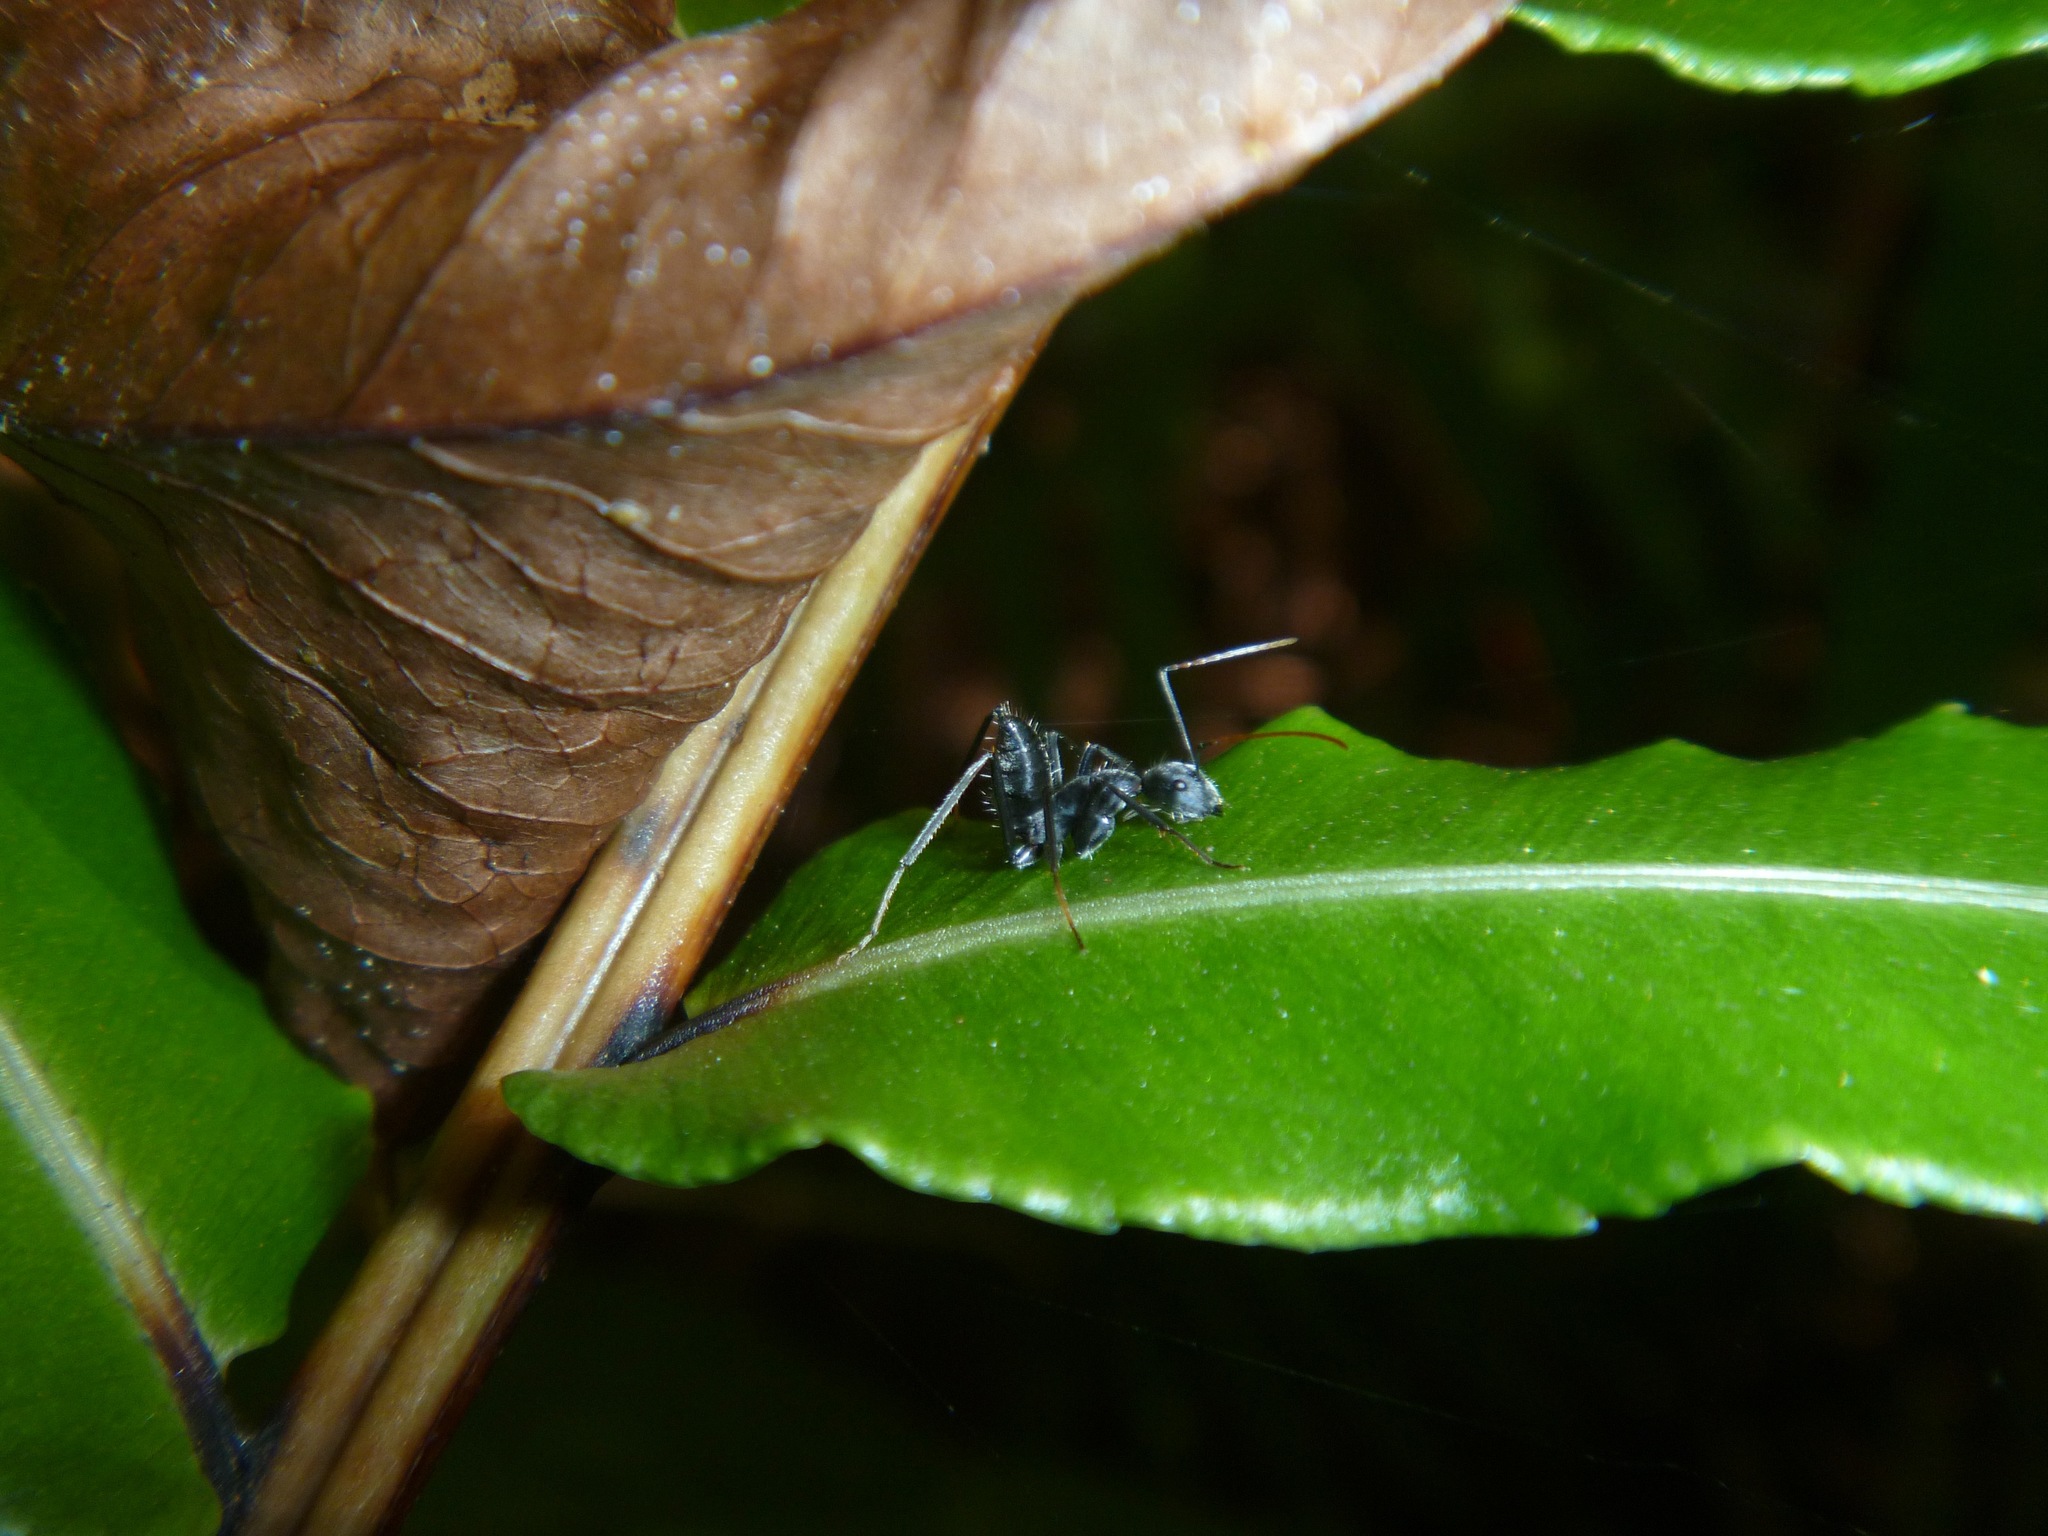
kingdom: Animalia
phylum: Arthropoda
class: Insecta
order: Hymenoptera
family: Formicidae
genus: Camponotus
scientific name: Camponotus gambeyi
